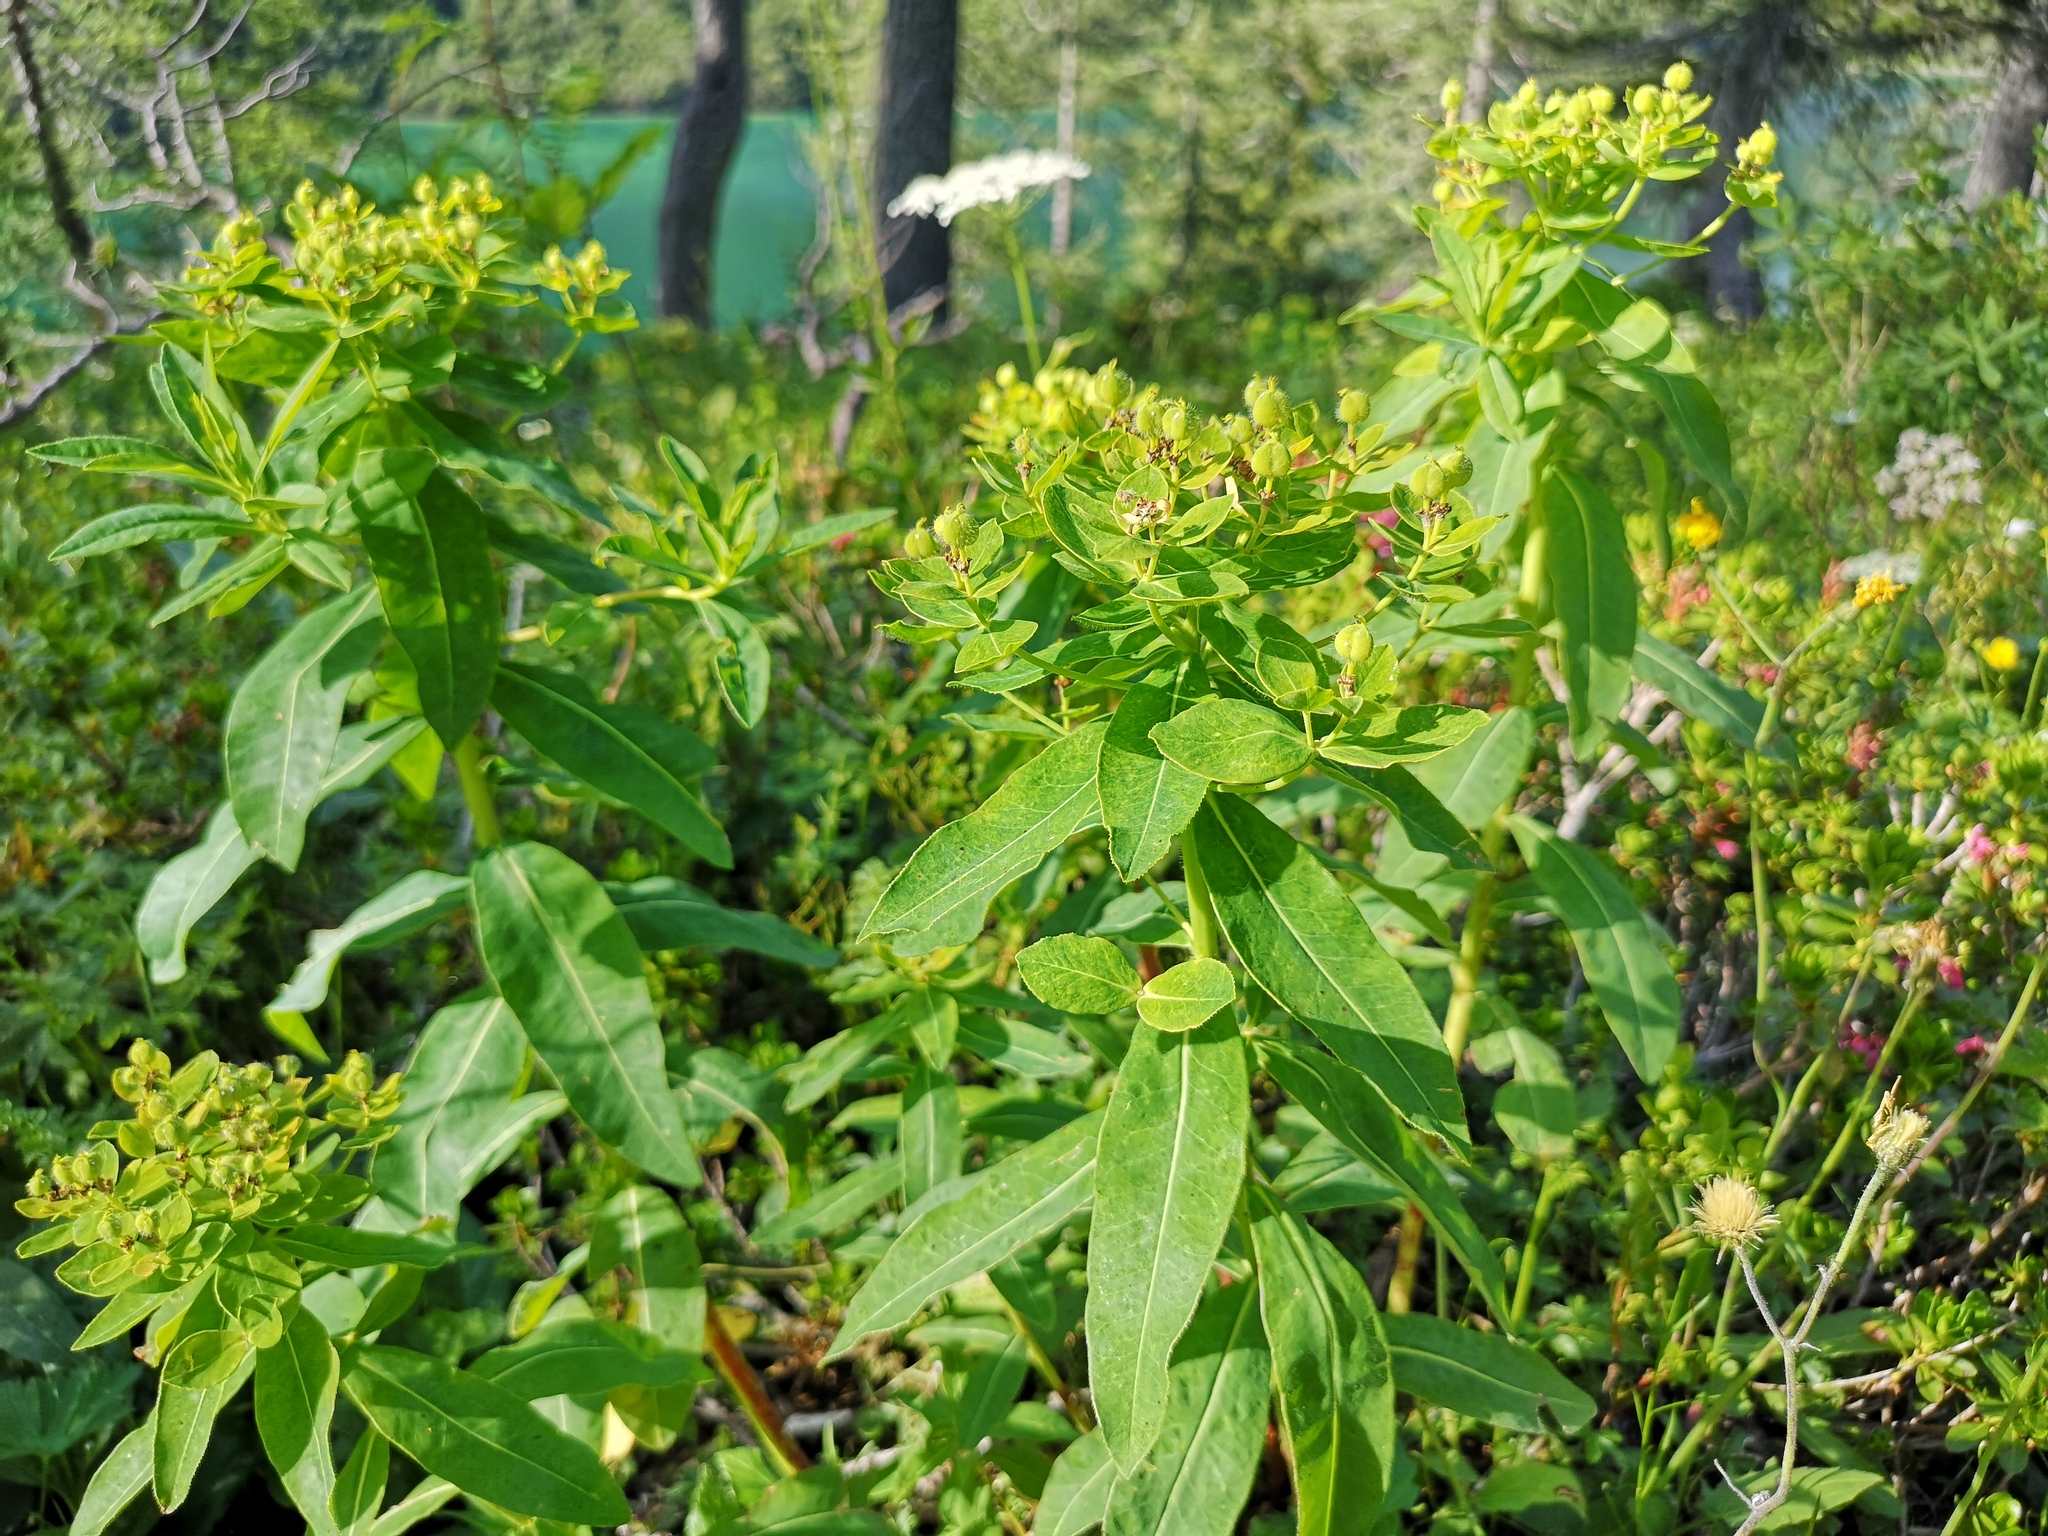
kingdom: Plantae
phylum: Tracheophyta
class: Magnoliopsida
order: Malpighiales
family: Euphorbiaceae
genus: Euphorbia
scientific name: Euphorbia austriaca
